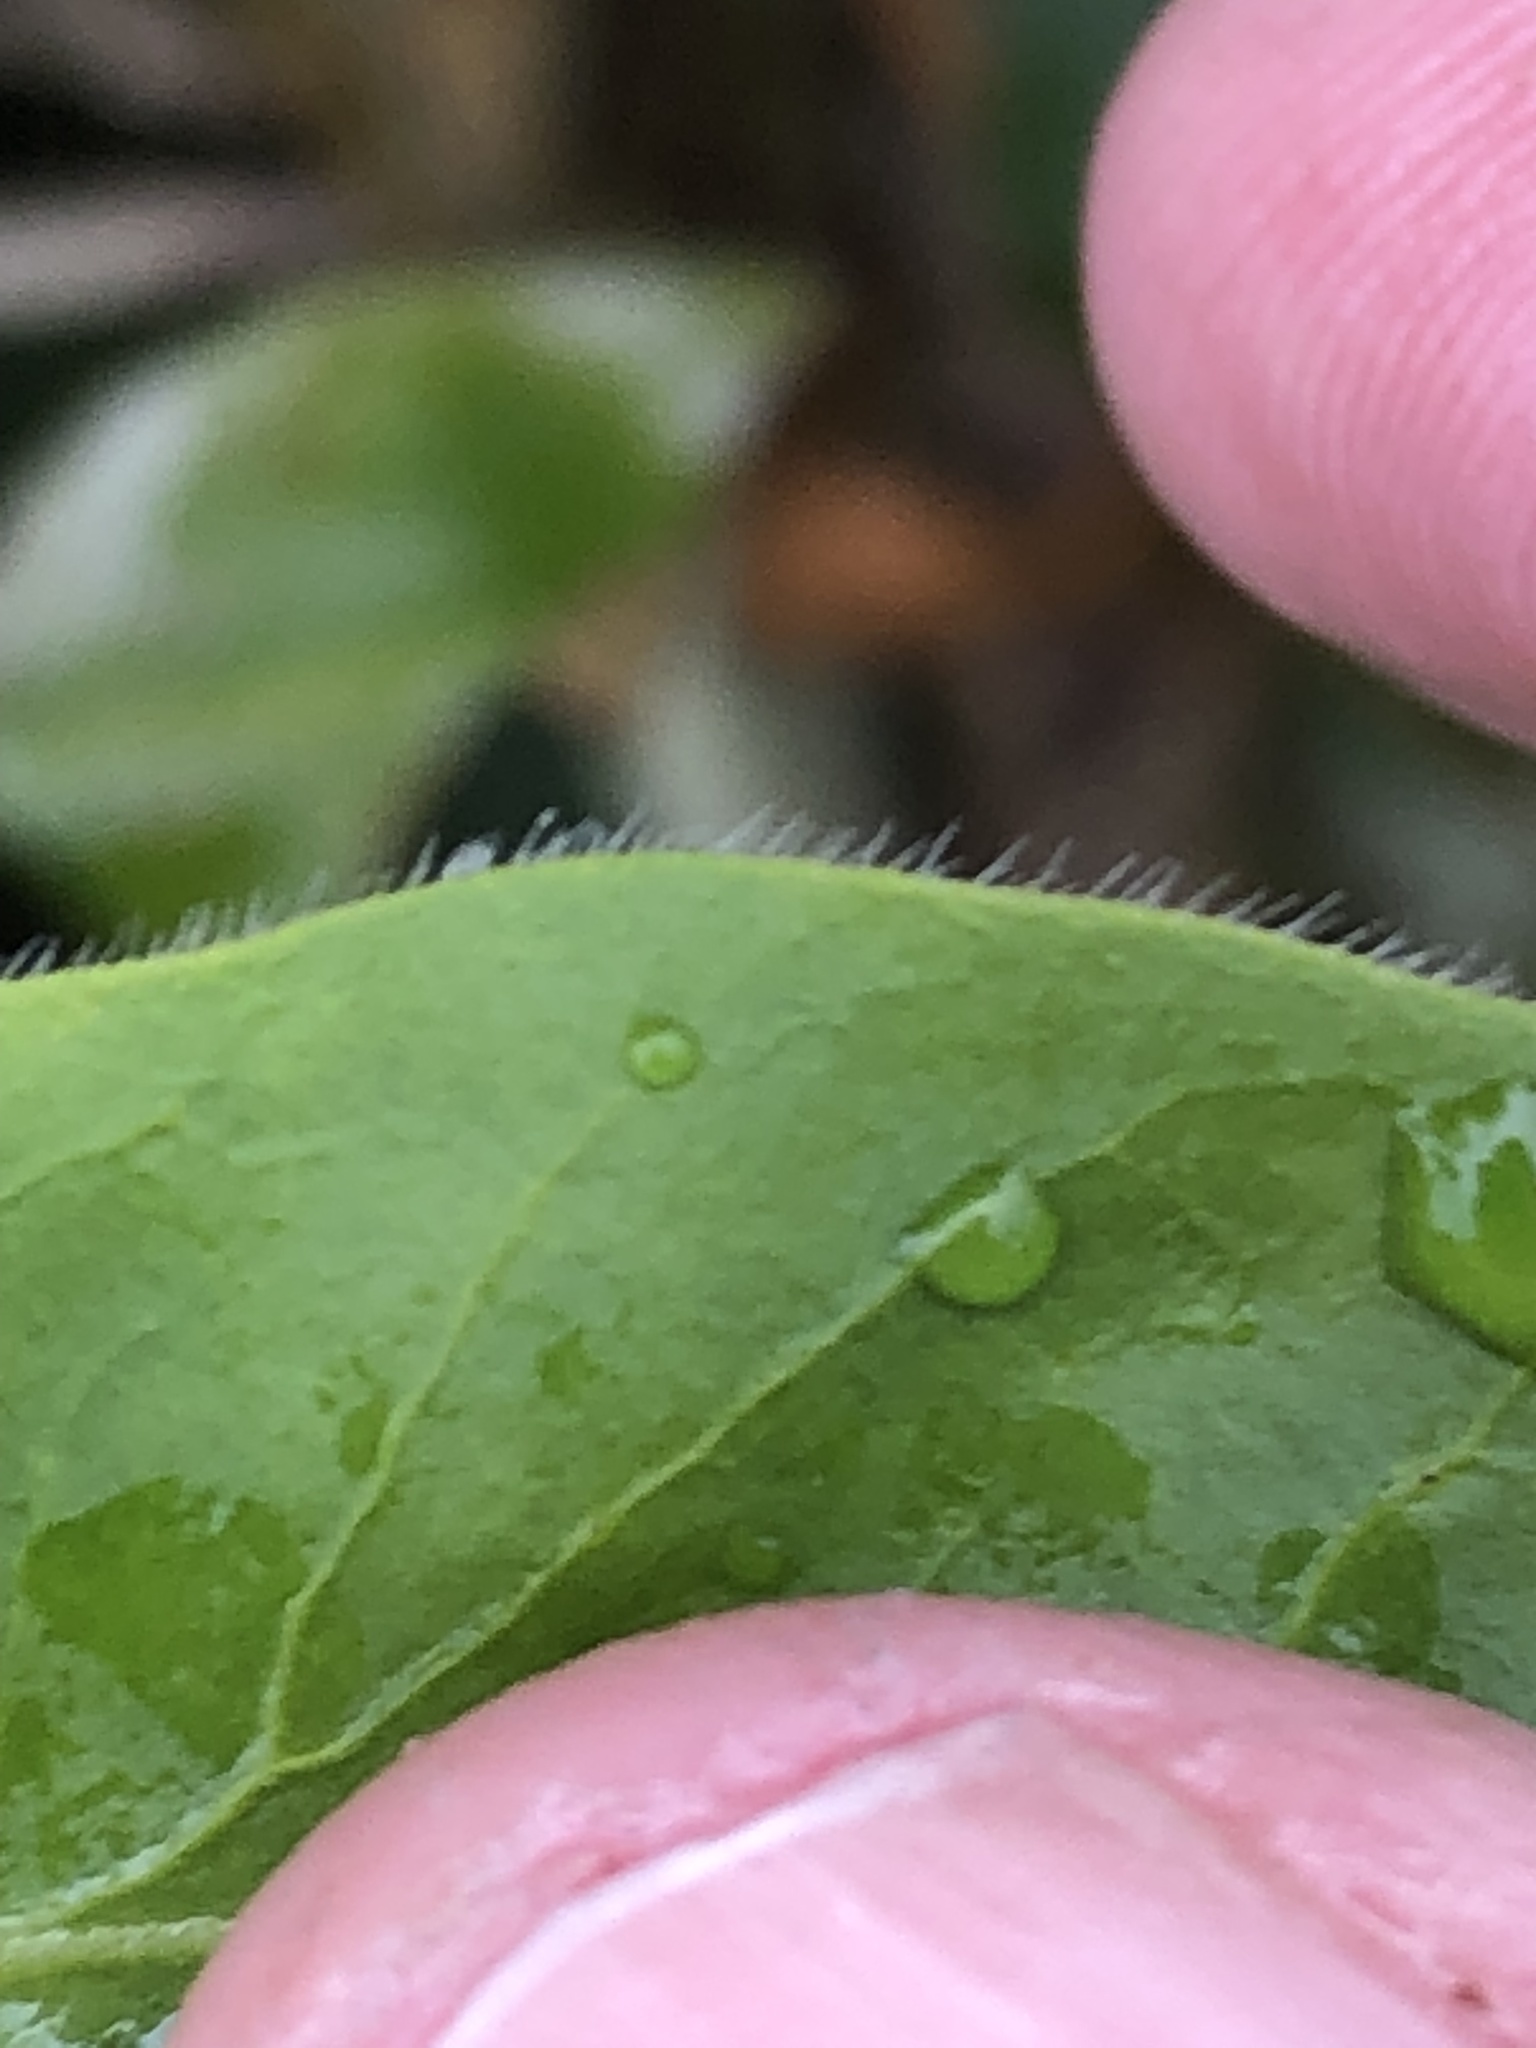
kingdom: Plantae
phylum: Tracheophyta
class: Magnoliopsida
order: Gentianales
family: Apocynaceae
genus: Vinca
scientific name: Vinca major
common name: Greater periwinkle
